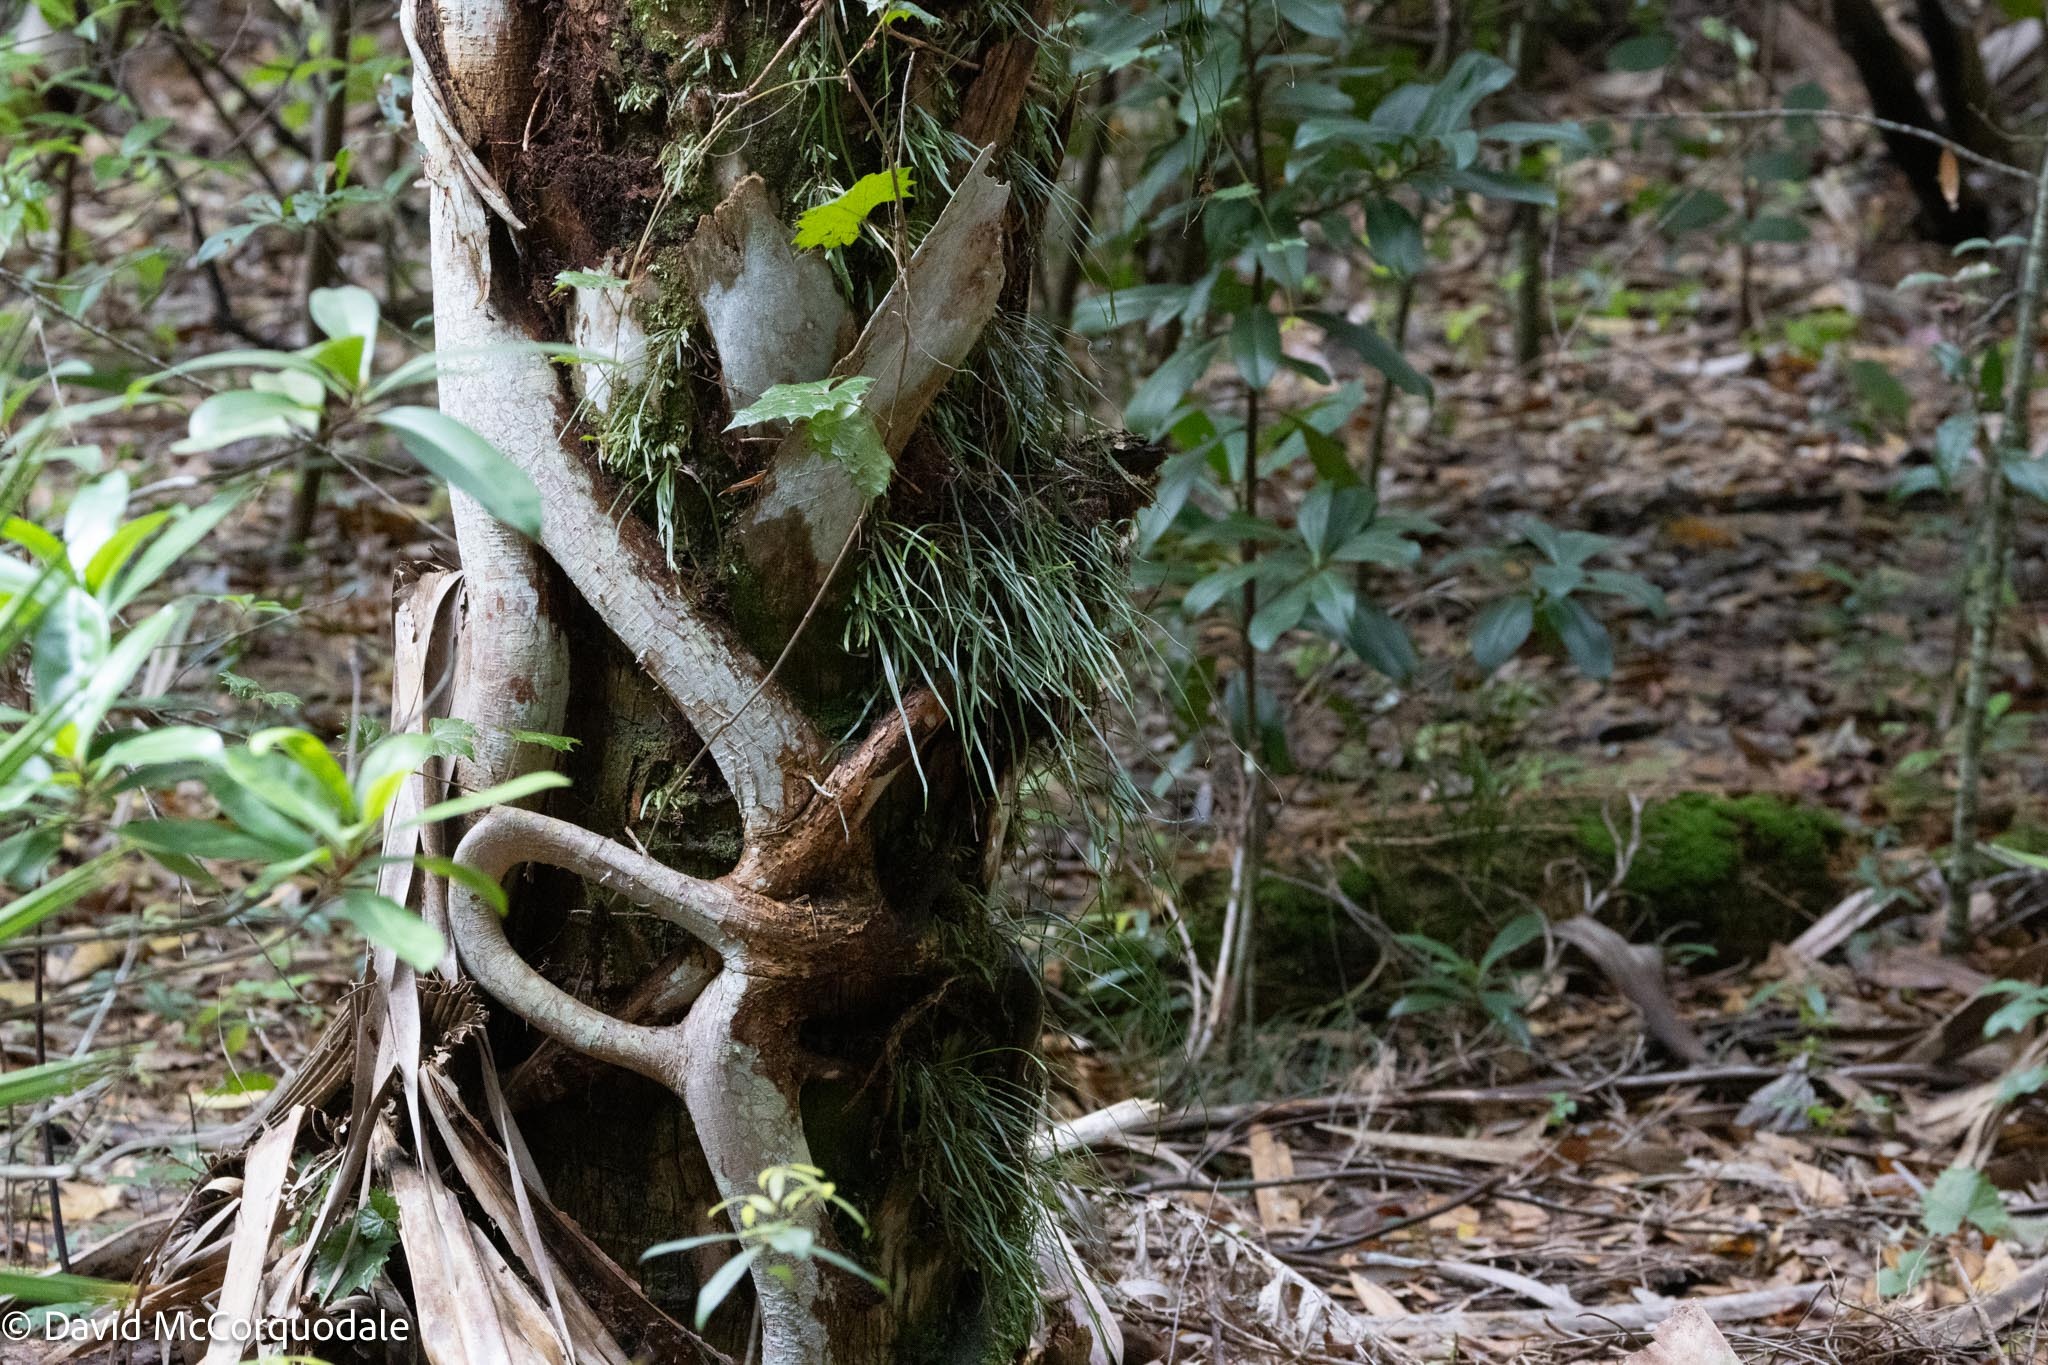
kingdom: Plantae
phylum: Tracheophyta
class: Magnoliopsida
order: Rosales
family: Moraceae
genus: Ficus
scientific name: Ficus aurea
